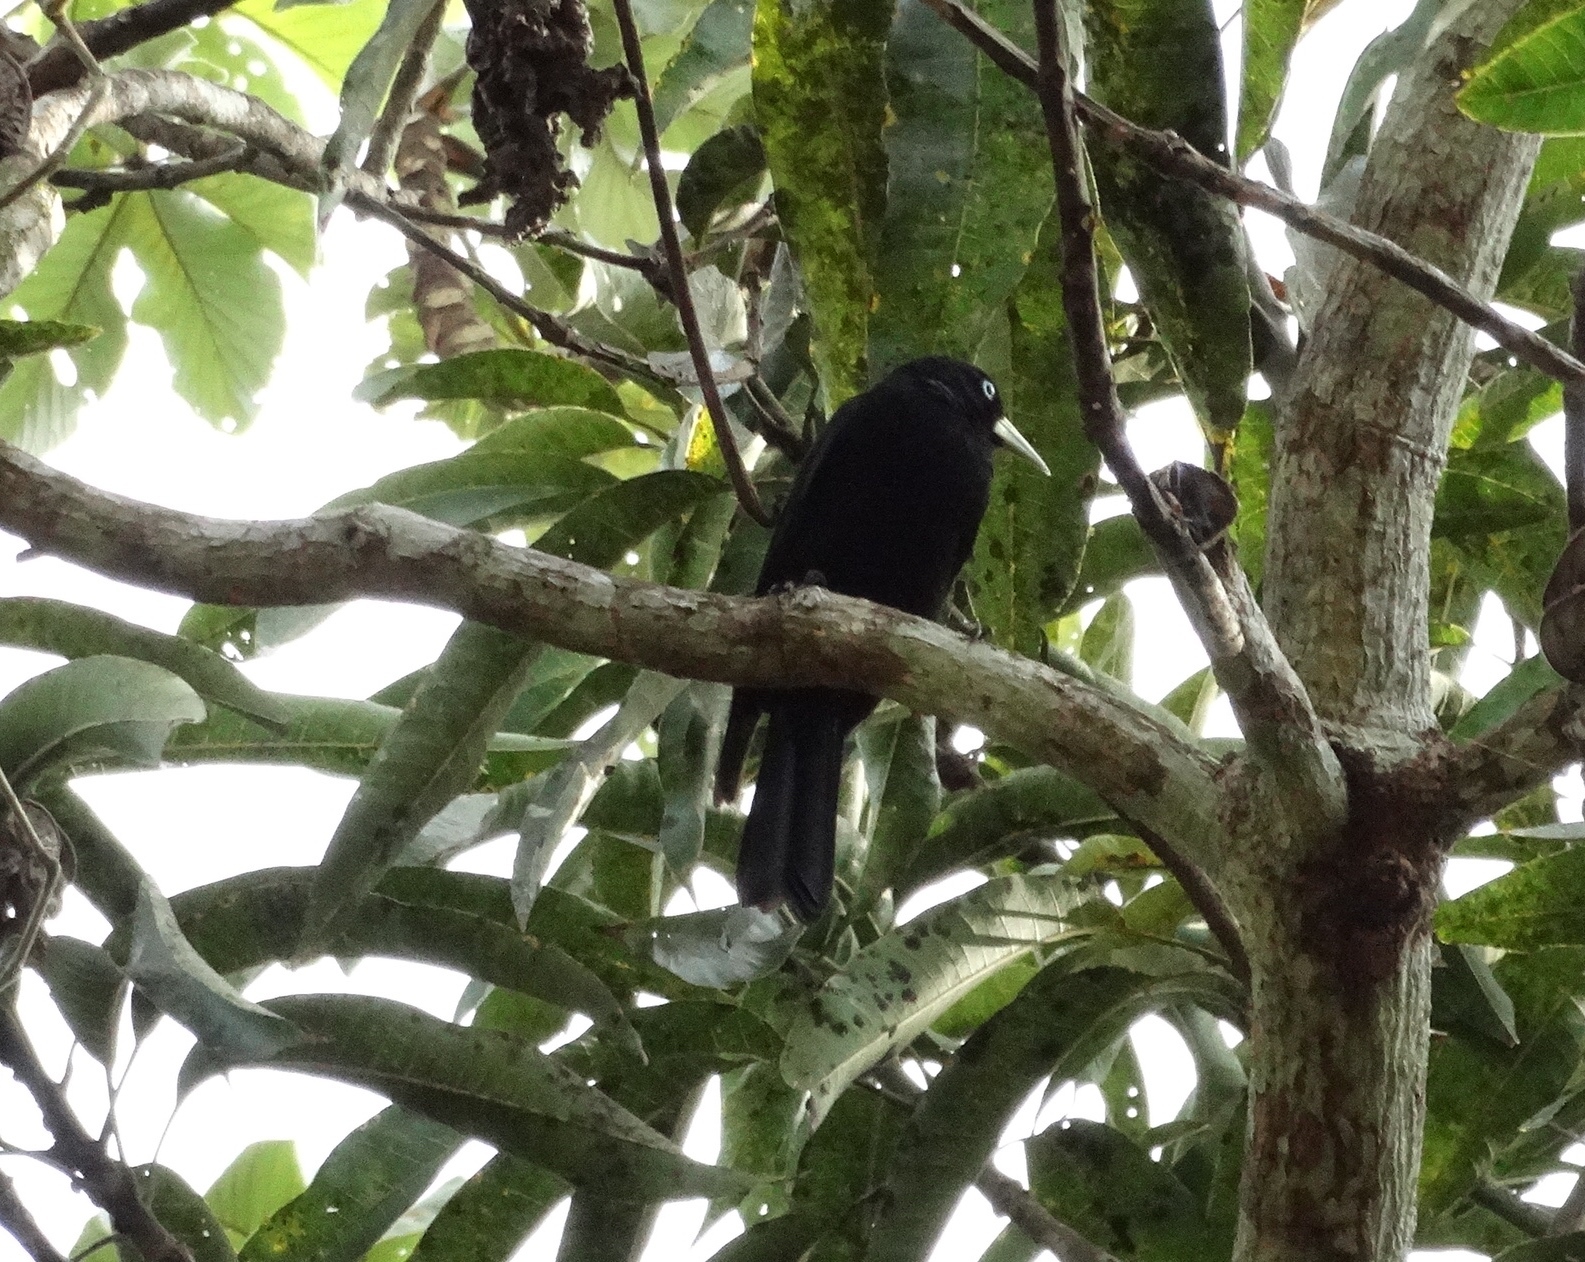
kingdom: Animalia
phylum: Chordata
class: Aves
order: Passeriformes
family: Icteridae
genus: Cacicus
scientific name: Cacicus uropygialis
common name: Scarlet-rumped cacique
